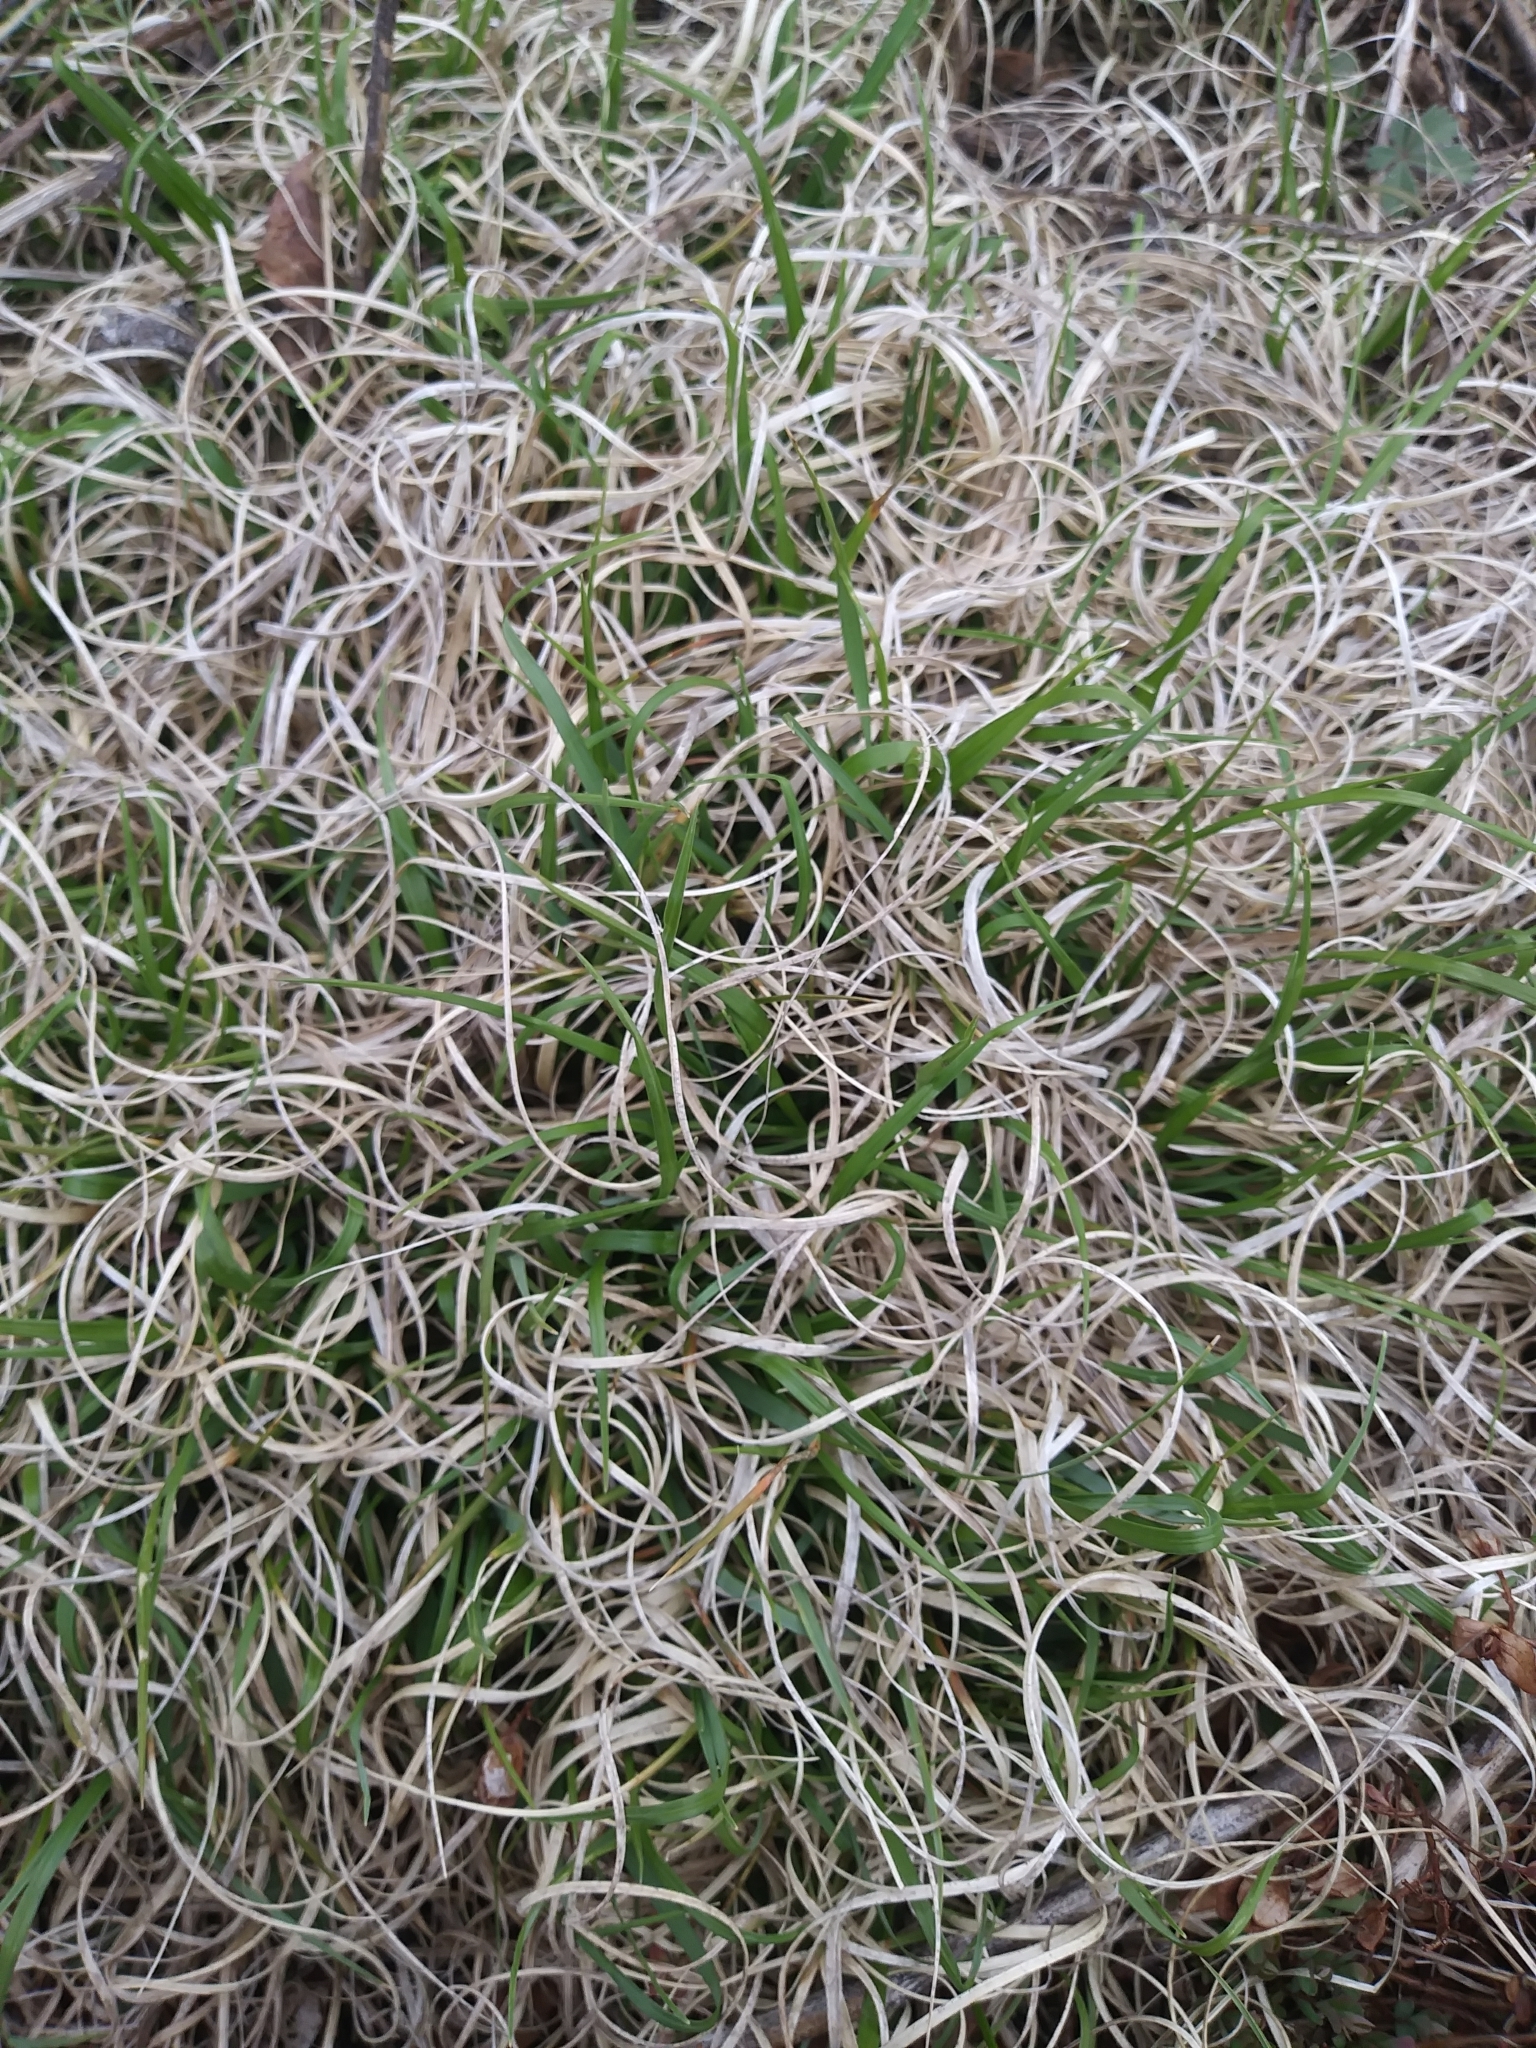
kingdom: Plantae
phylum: Tracheophyta
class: Liliopsida
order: Poales
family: Poaceae
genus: Danthonia
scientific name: Danthonia spicata
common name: Common wild oatgrass
